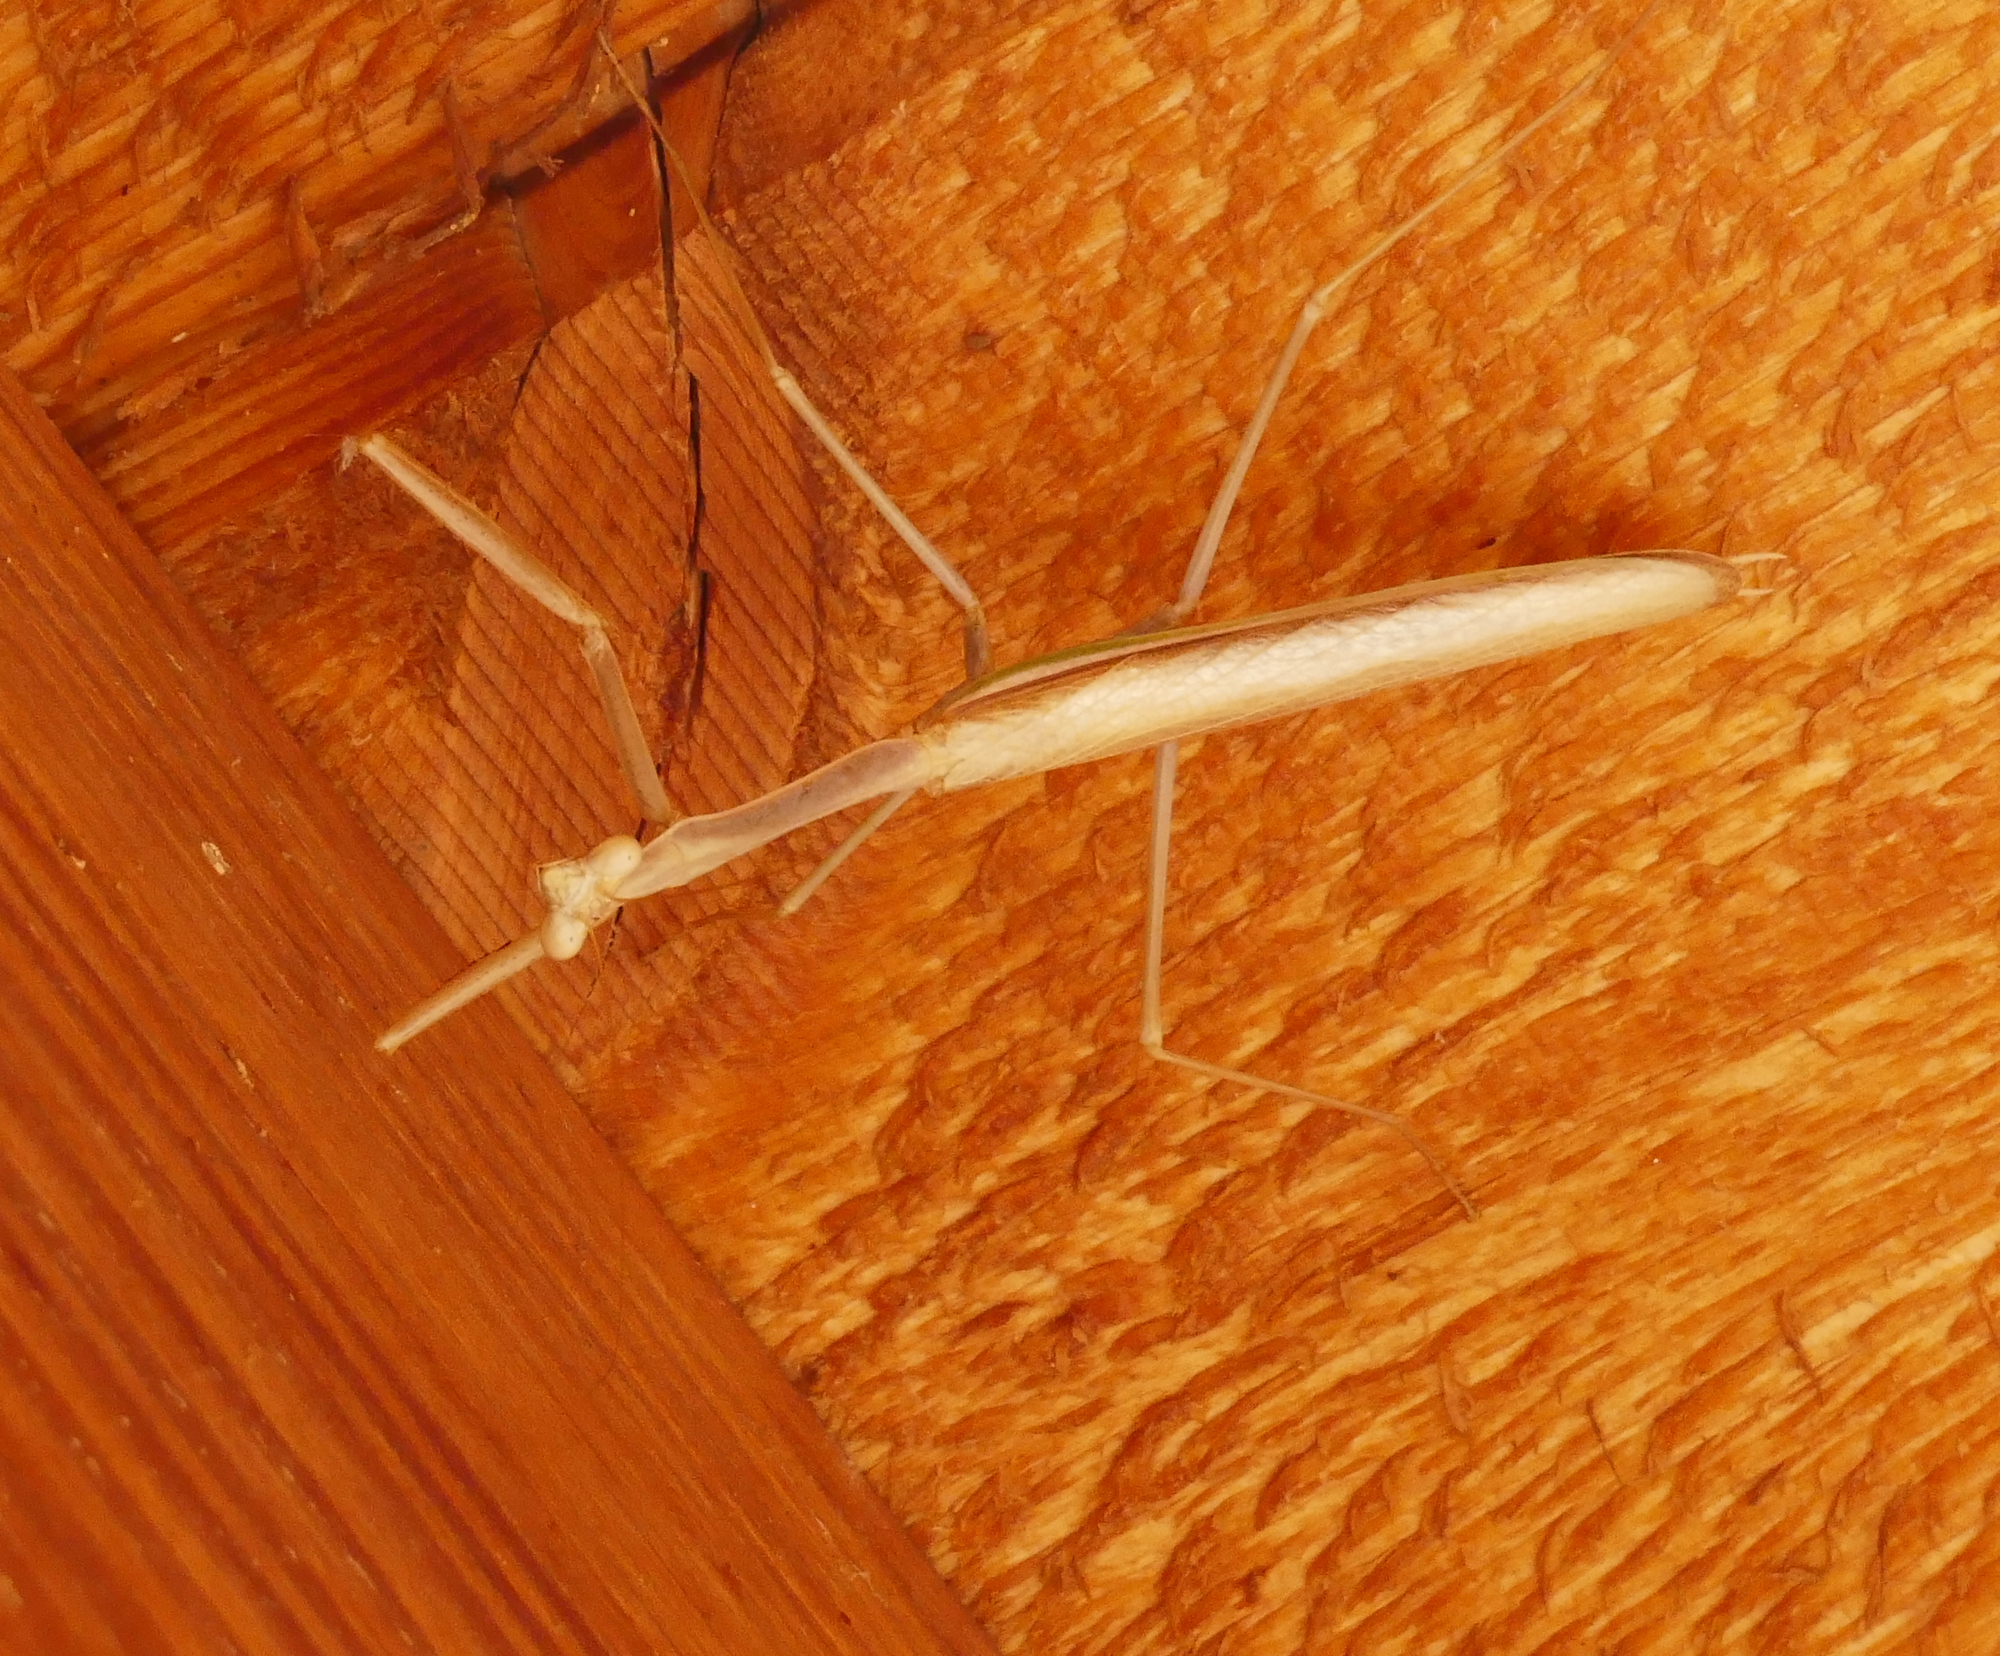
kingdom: Animalia
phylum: Arthropoda
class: Insecta
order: Mantodea
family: Mantidae
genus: Stagmomantis
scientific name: Stagmomantis gracilipes
